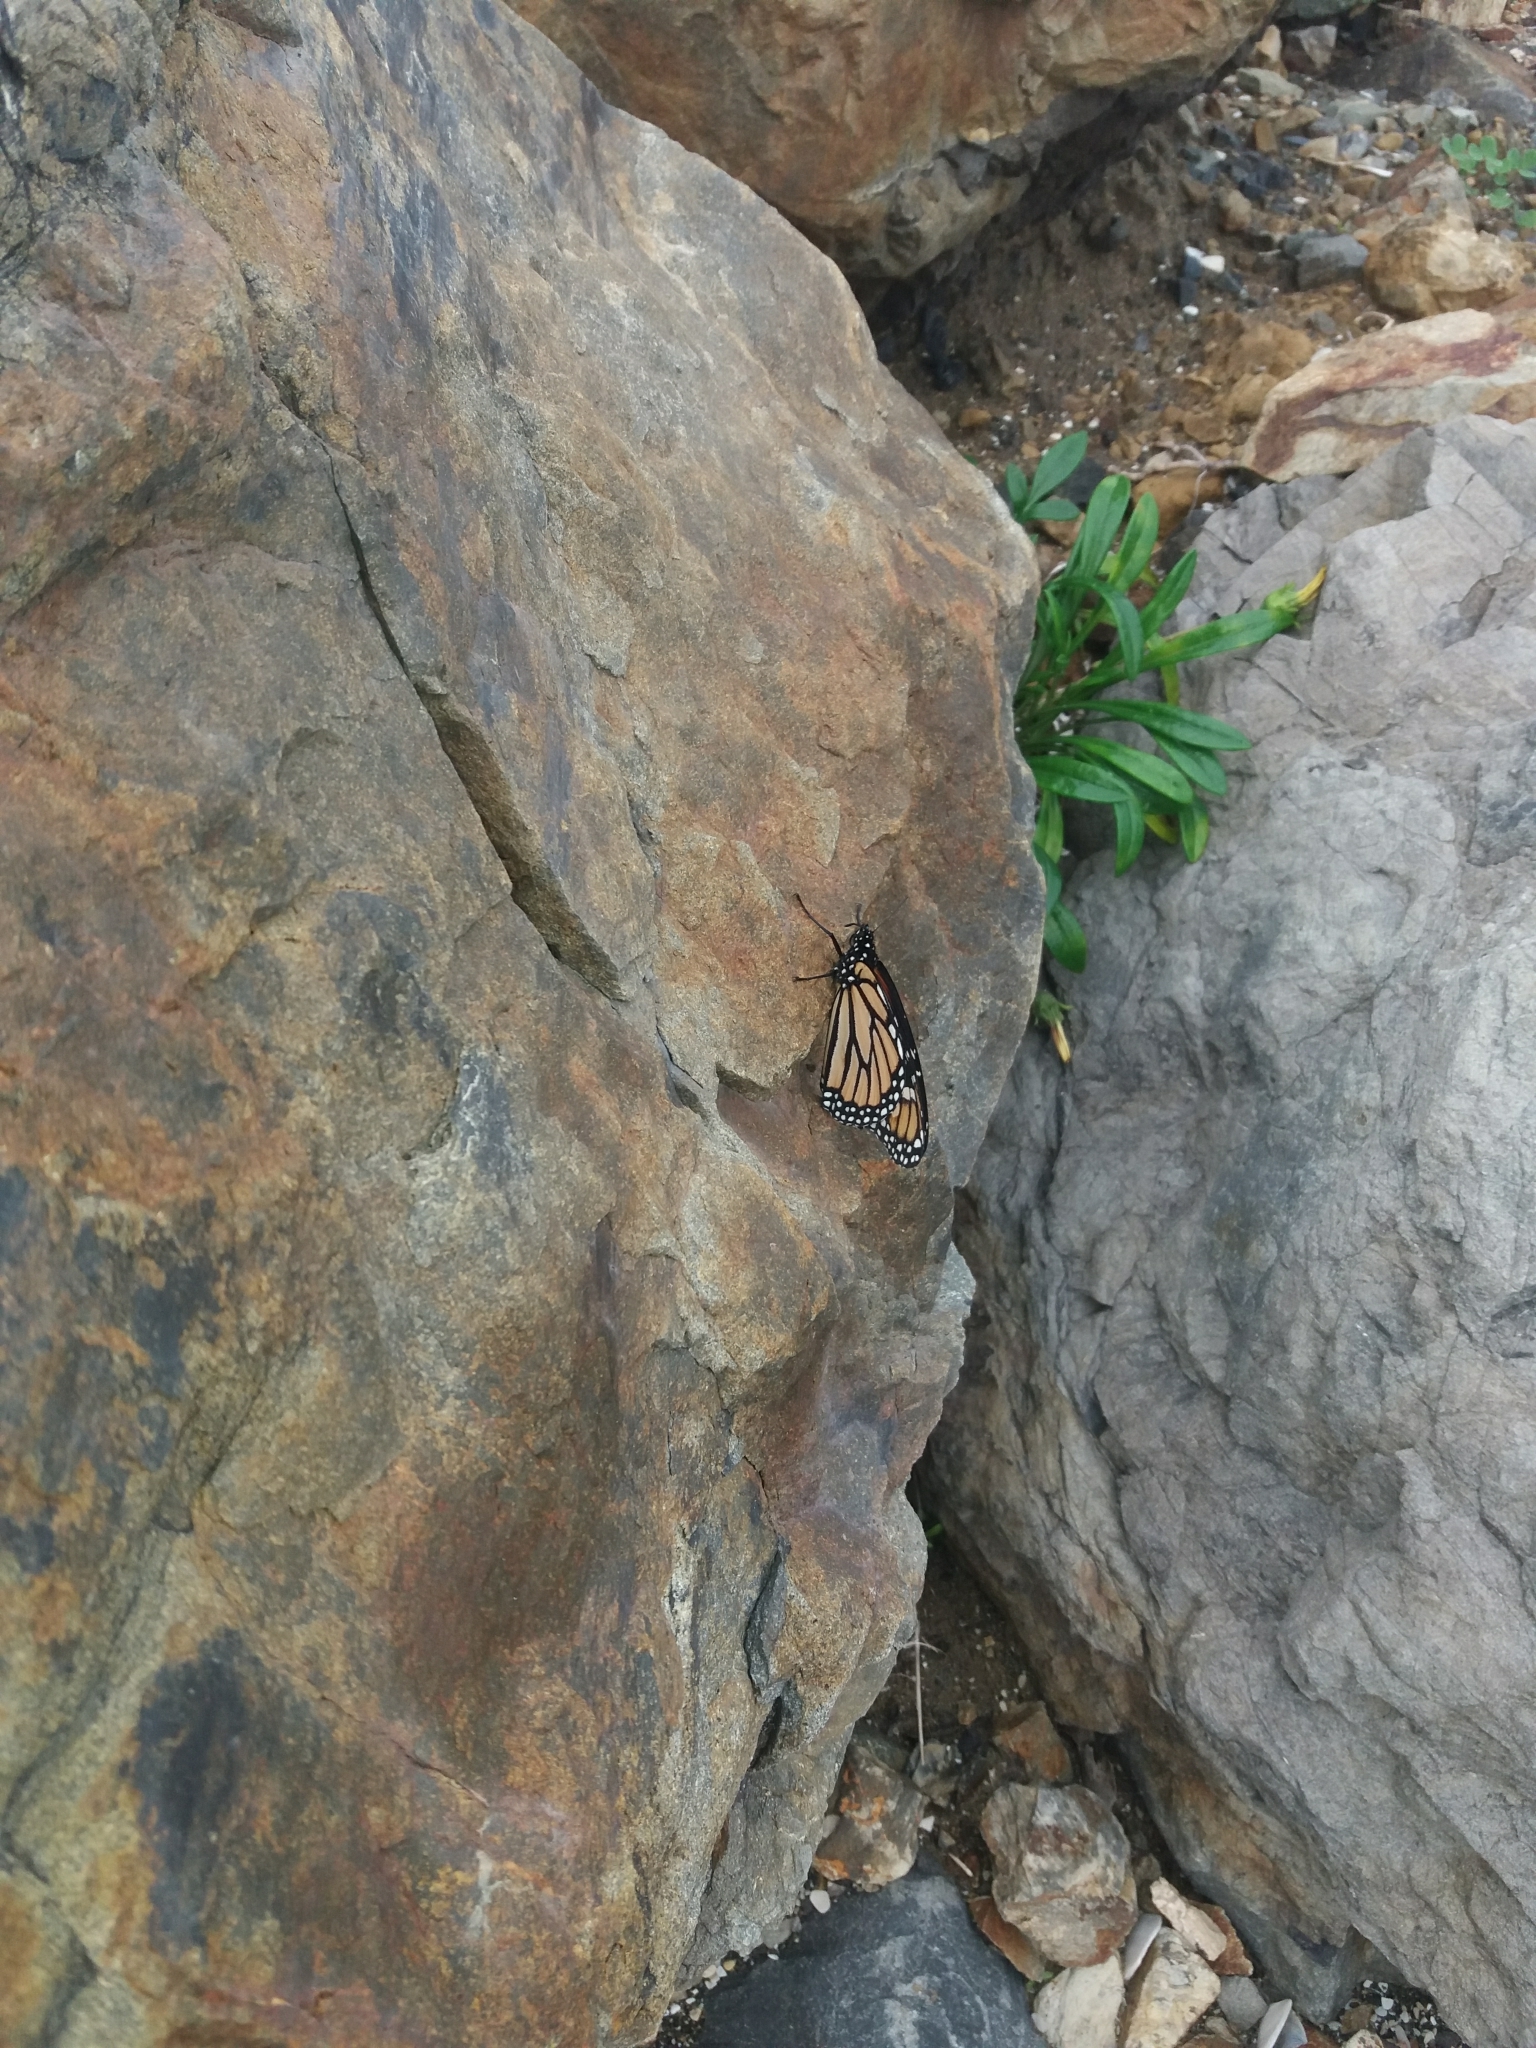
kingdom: Animalia
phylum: Arthropoda
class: Insecta
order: Lepidoptera
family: Nymphalidae
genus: Danaus
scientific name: Danaus plexippus
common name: Monarch
